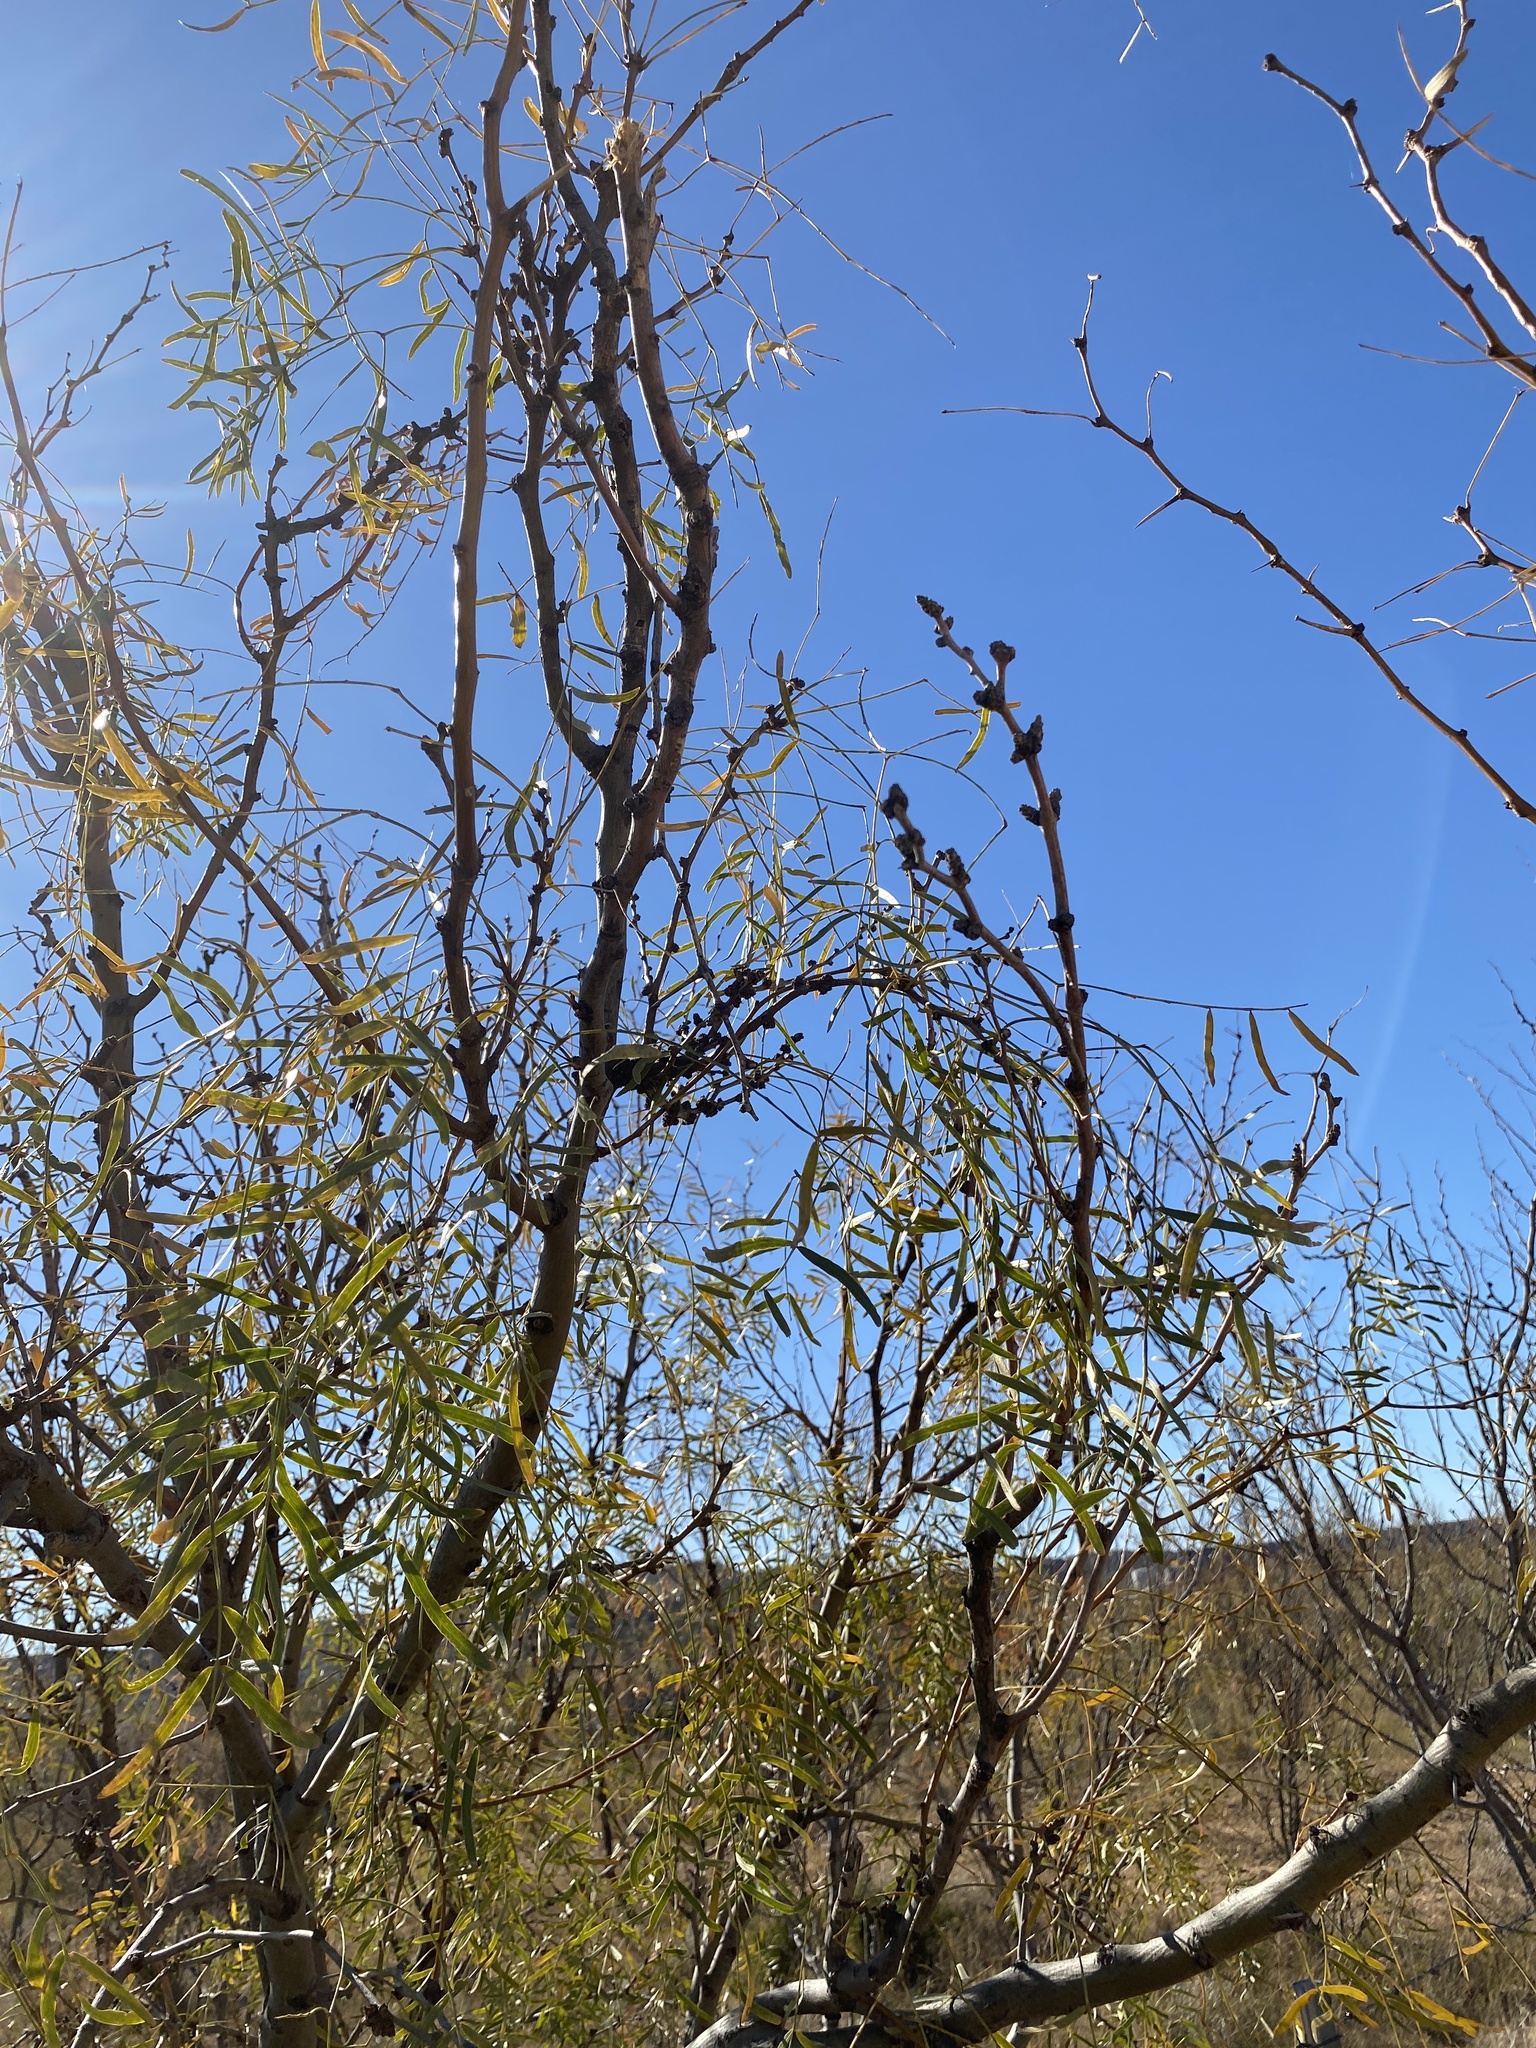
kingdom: Plantae
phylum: Tracheophyta
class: Magnoliopsida
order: Fabales
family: Fabaceae
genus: Prosopis
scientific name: Prosopis glandulosa
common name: Honey mesquite
